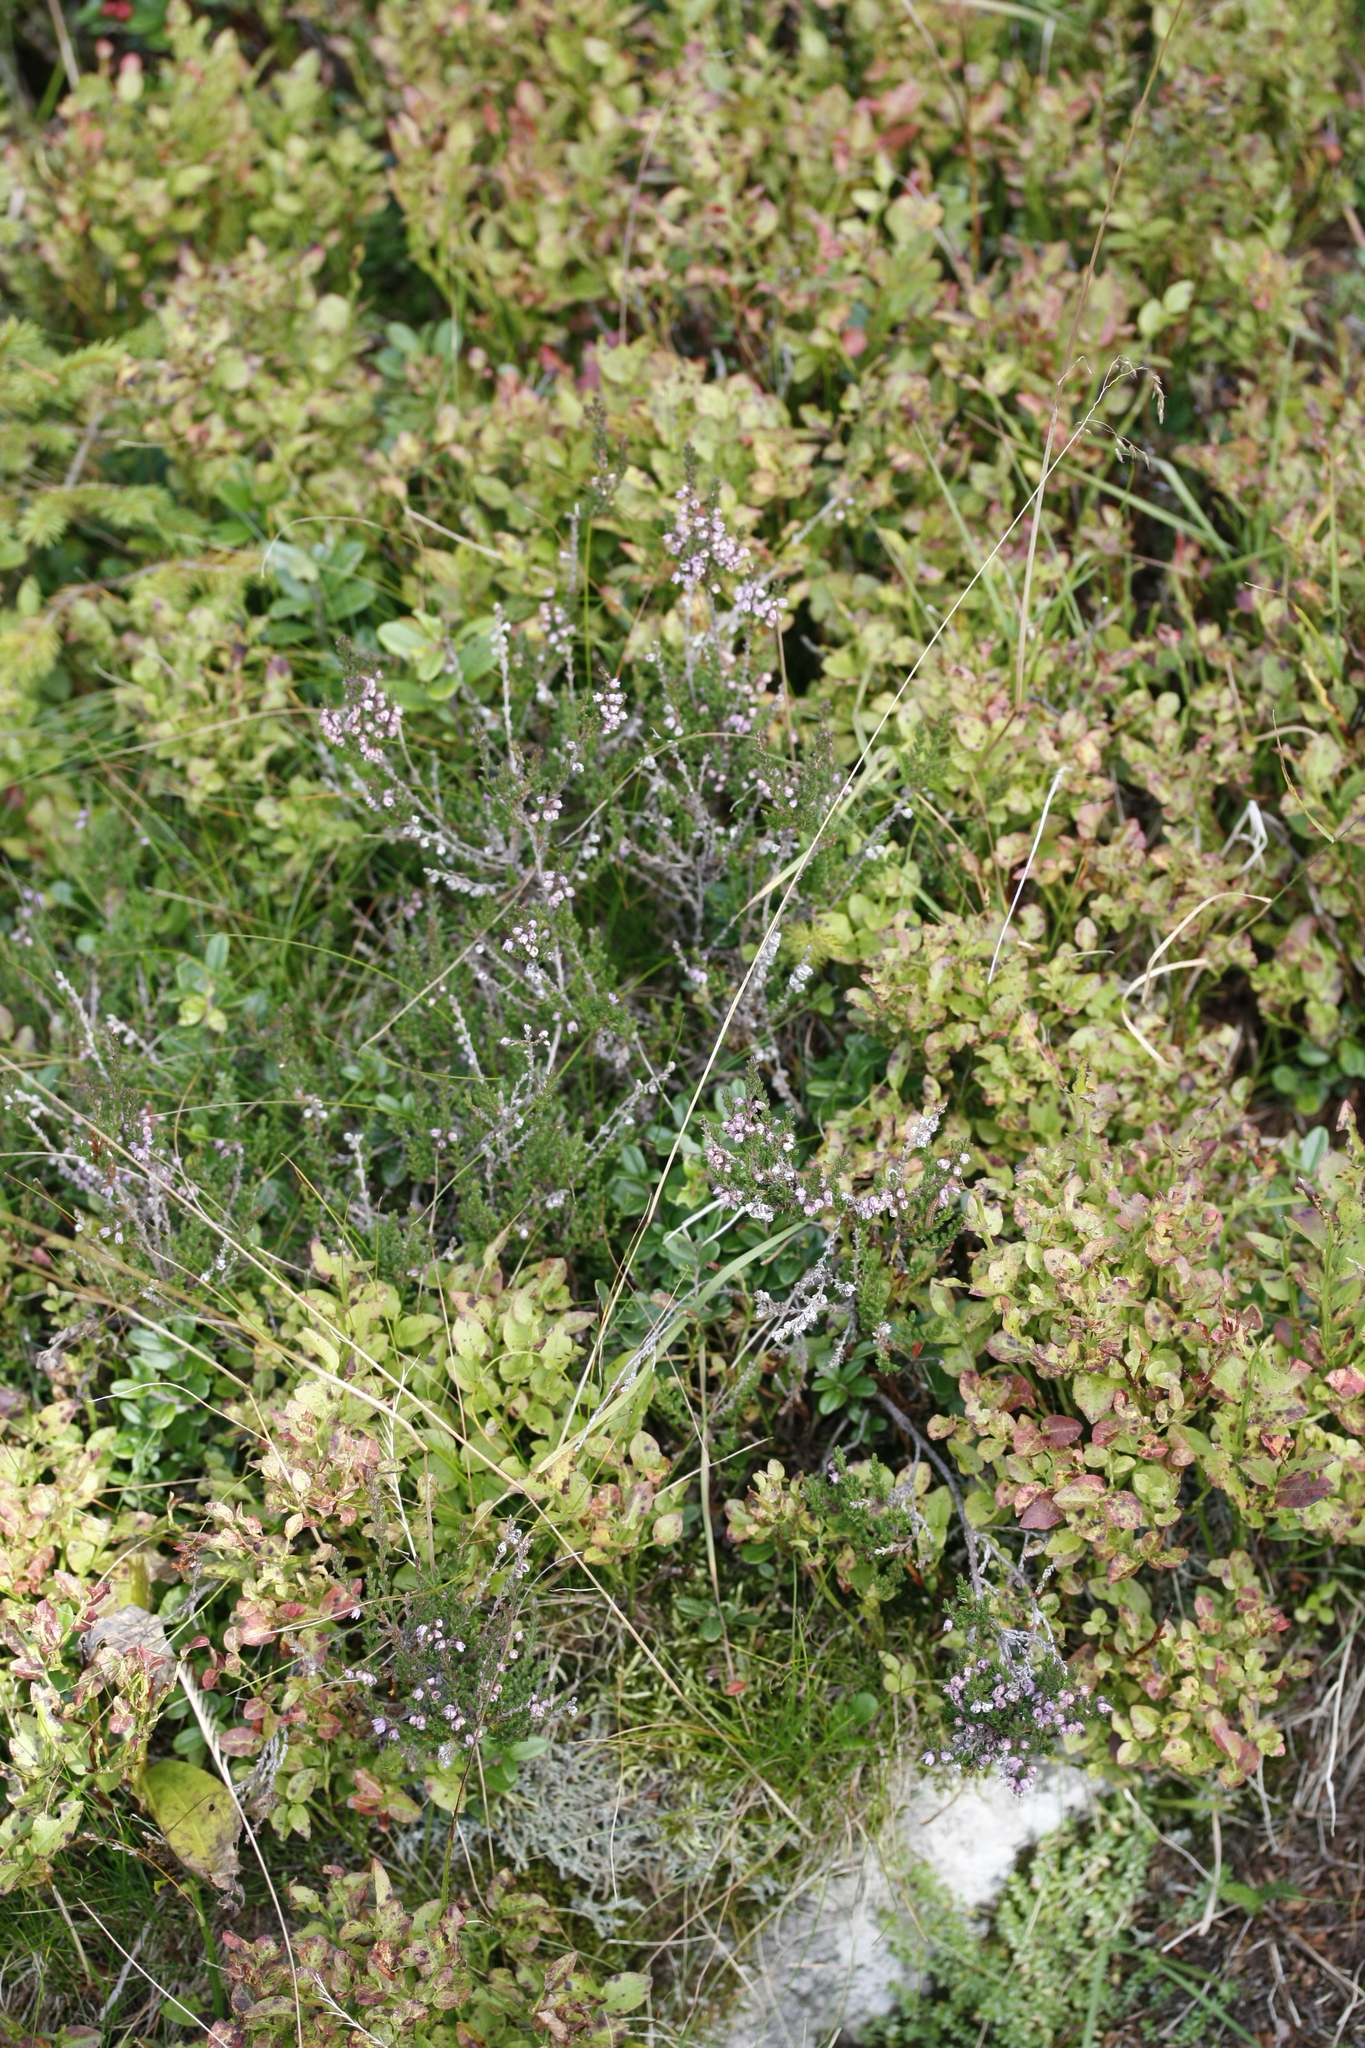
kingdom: Plantae
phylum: Tracheophyta
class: Magnoliopsida
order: Ericales
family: Ericaceae
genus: Calluna
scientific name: Calluna vulgaris
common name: Heather
